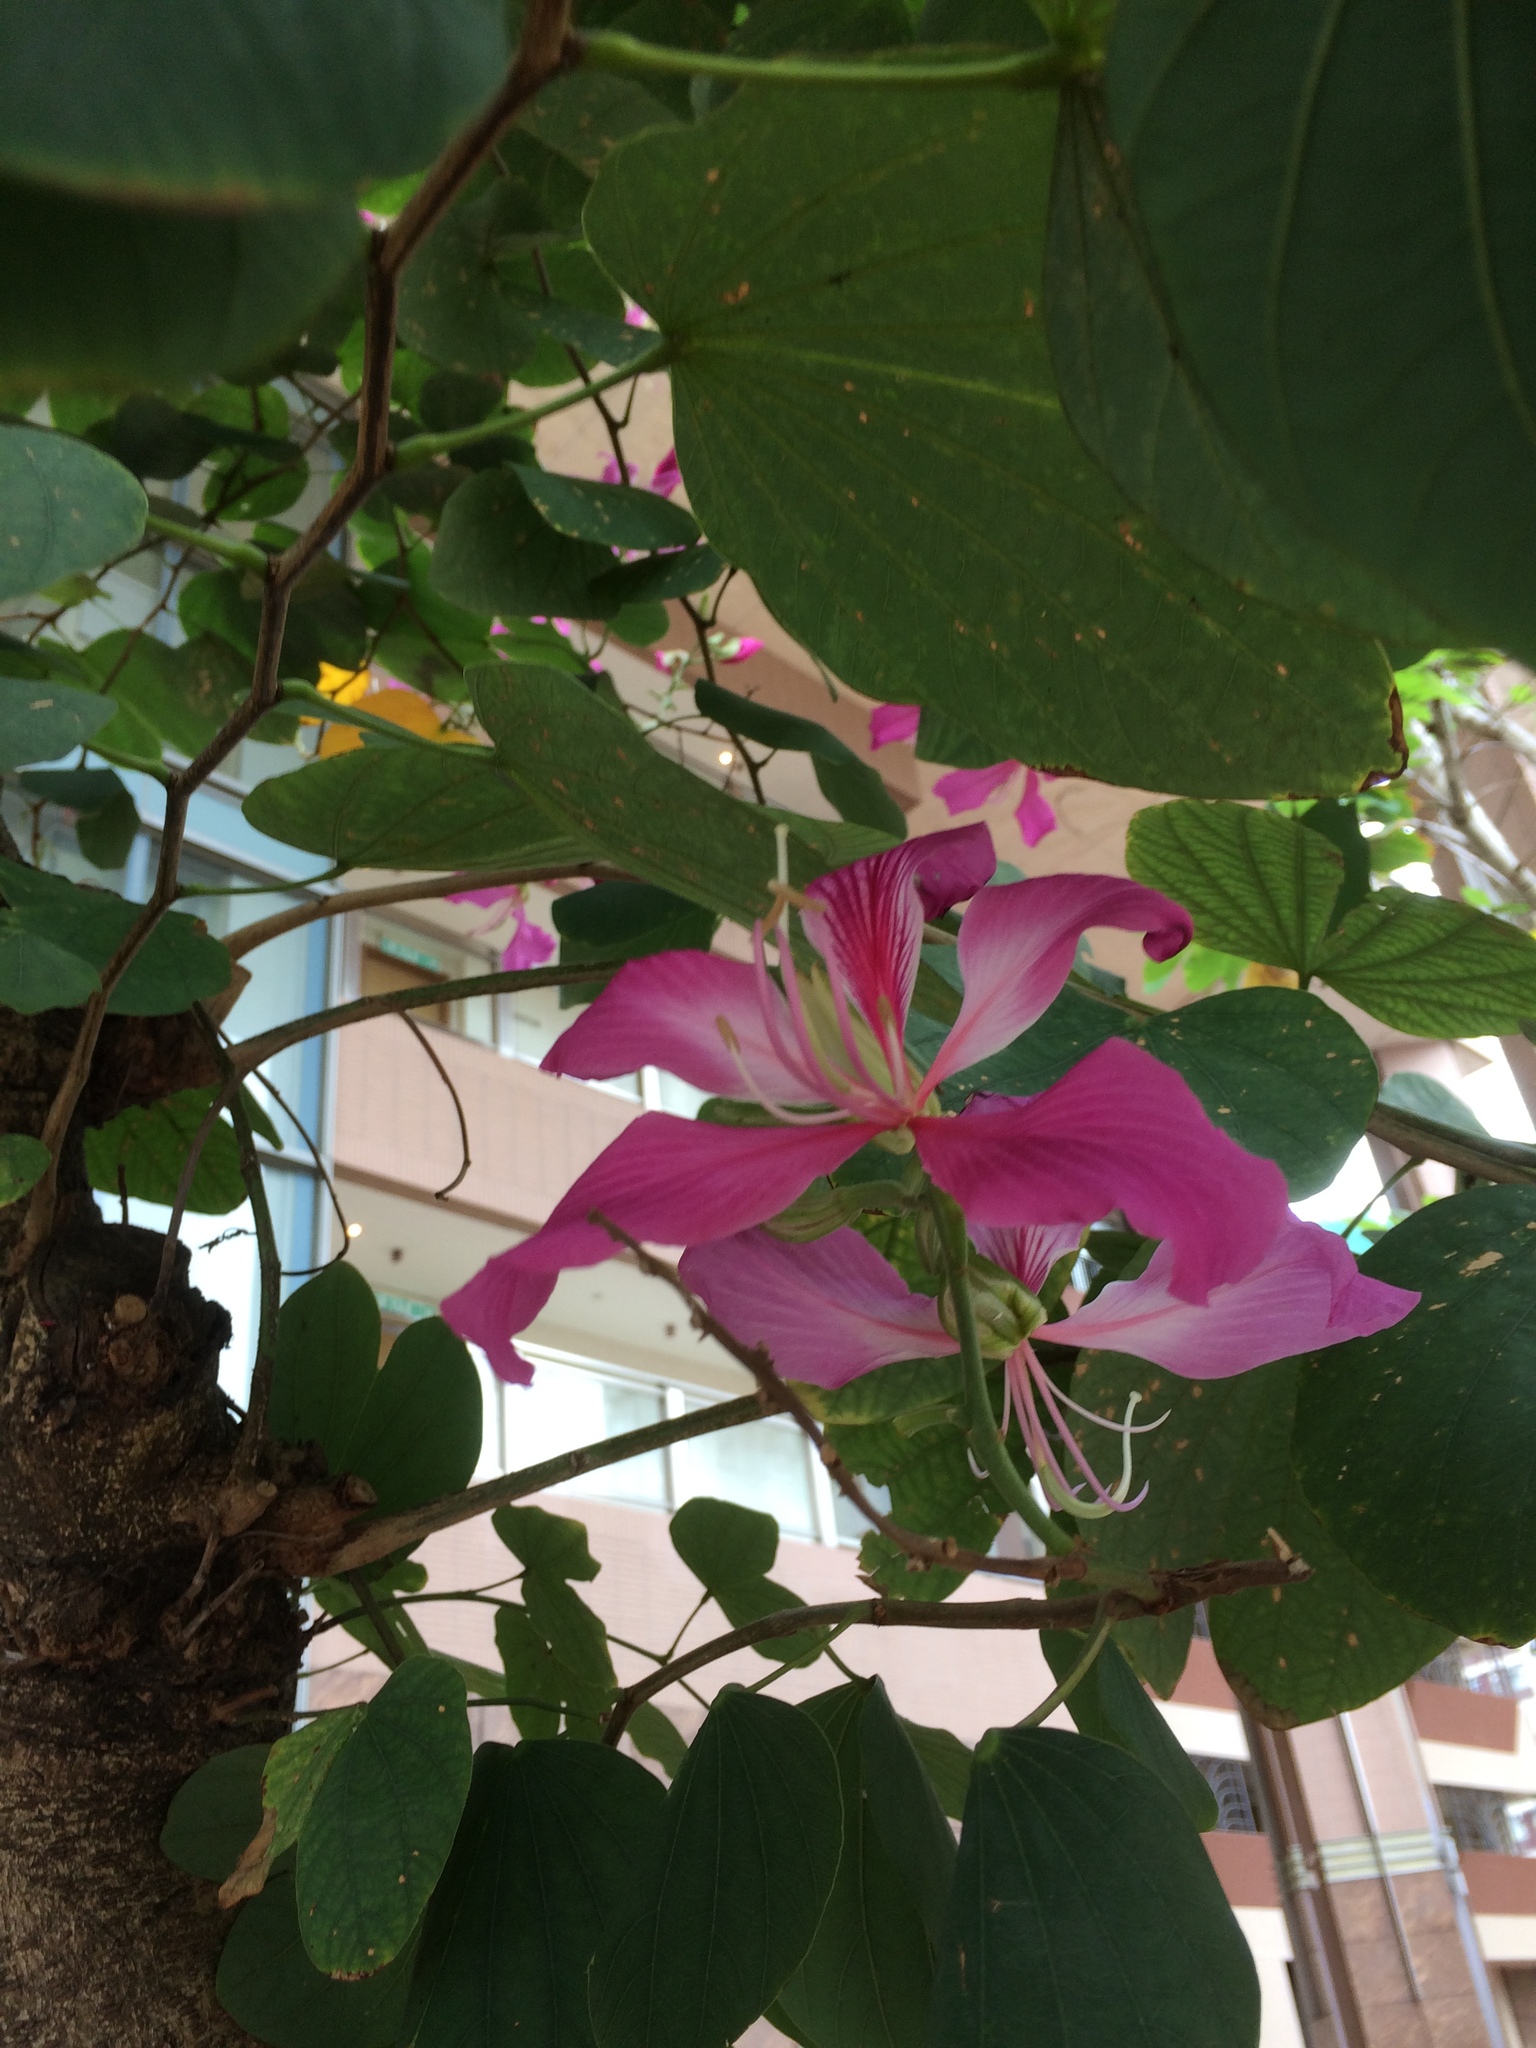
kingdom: Plantae
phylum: Tracheophyta
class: Magnoliopsida
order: Fabales
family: Fabaceae
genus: Bauhinia
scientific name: Bauhinia blakeana
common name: Bauhinia
